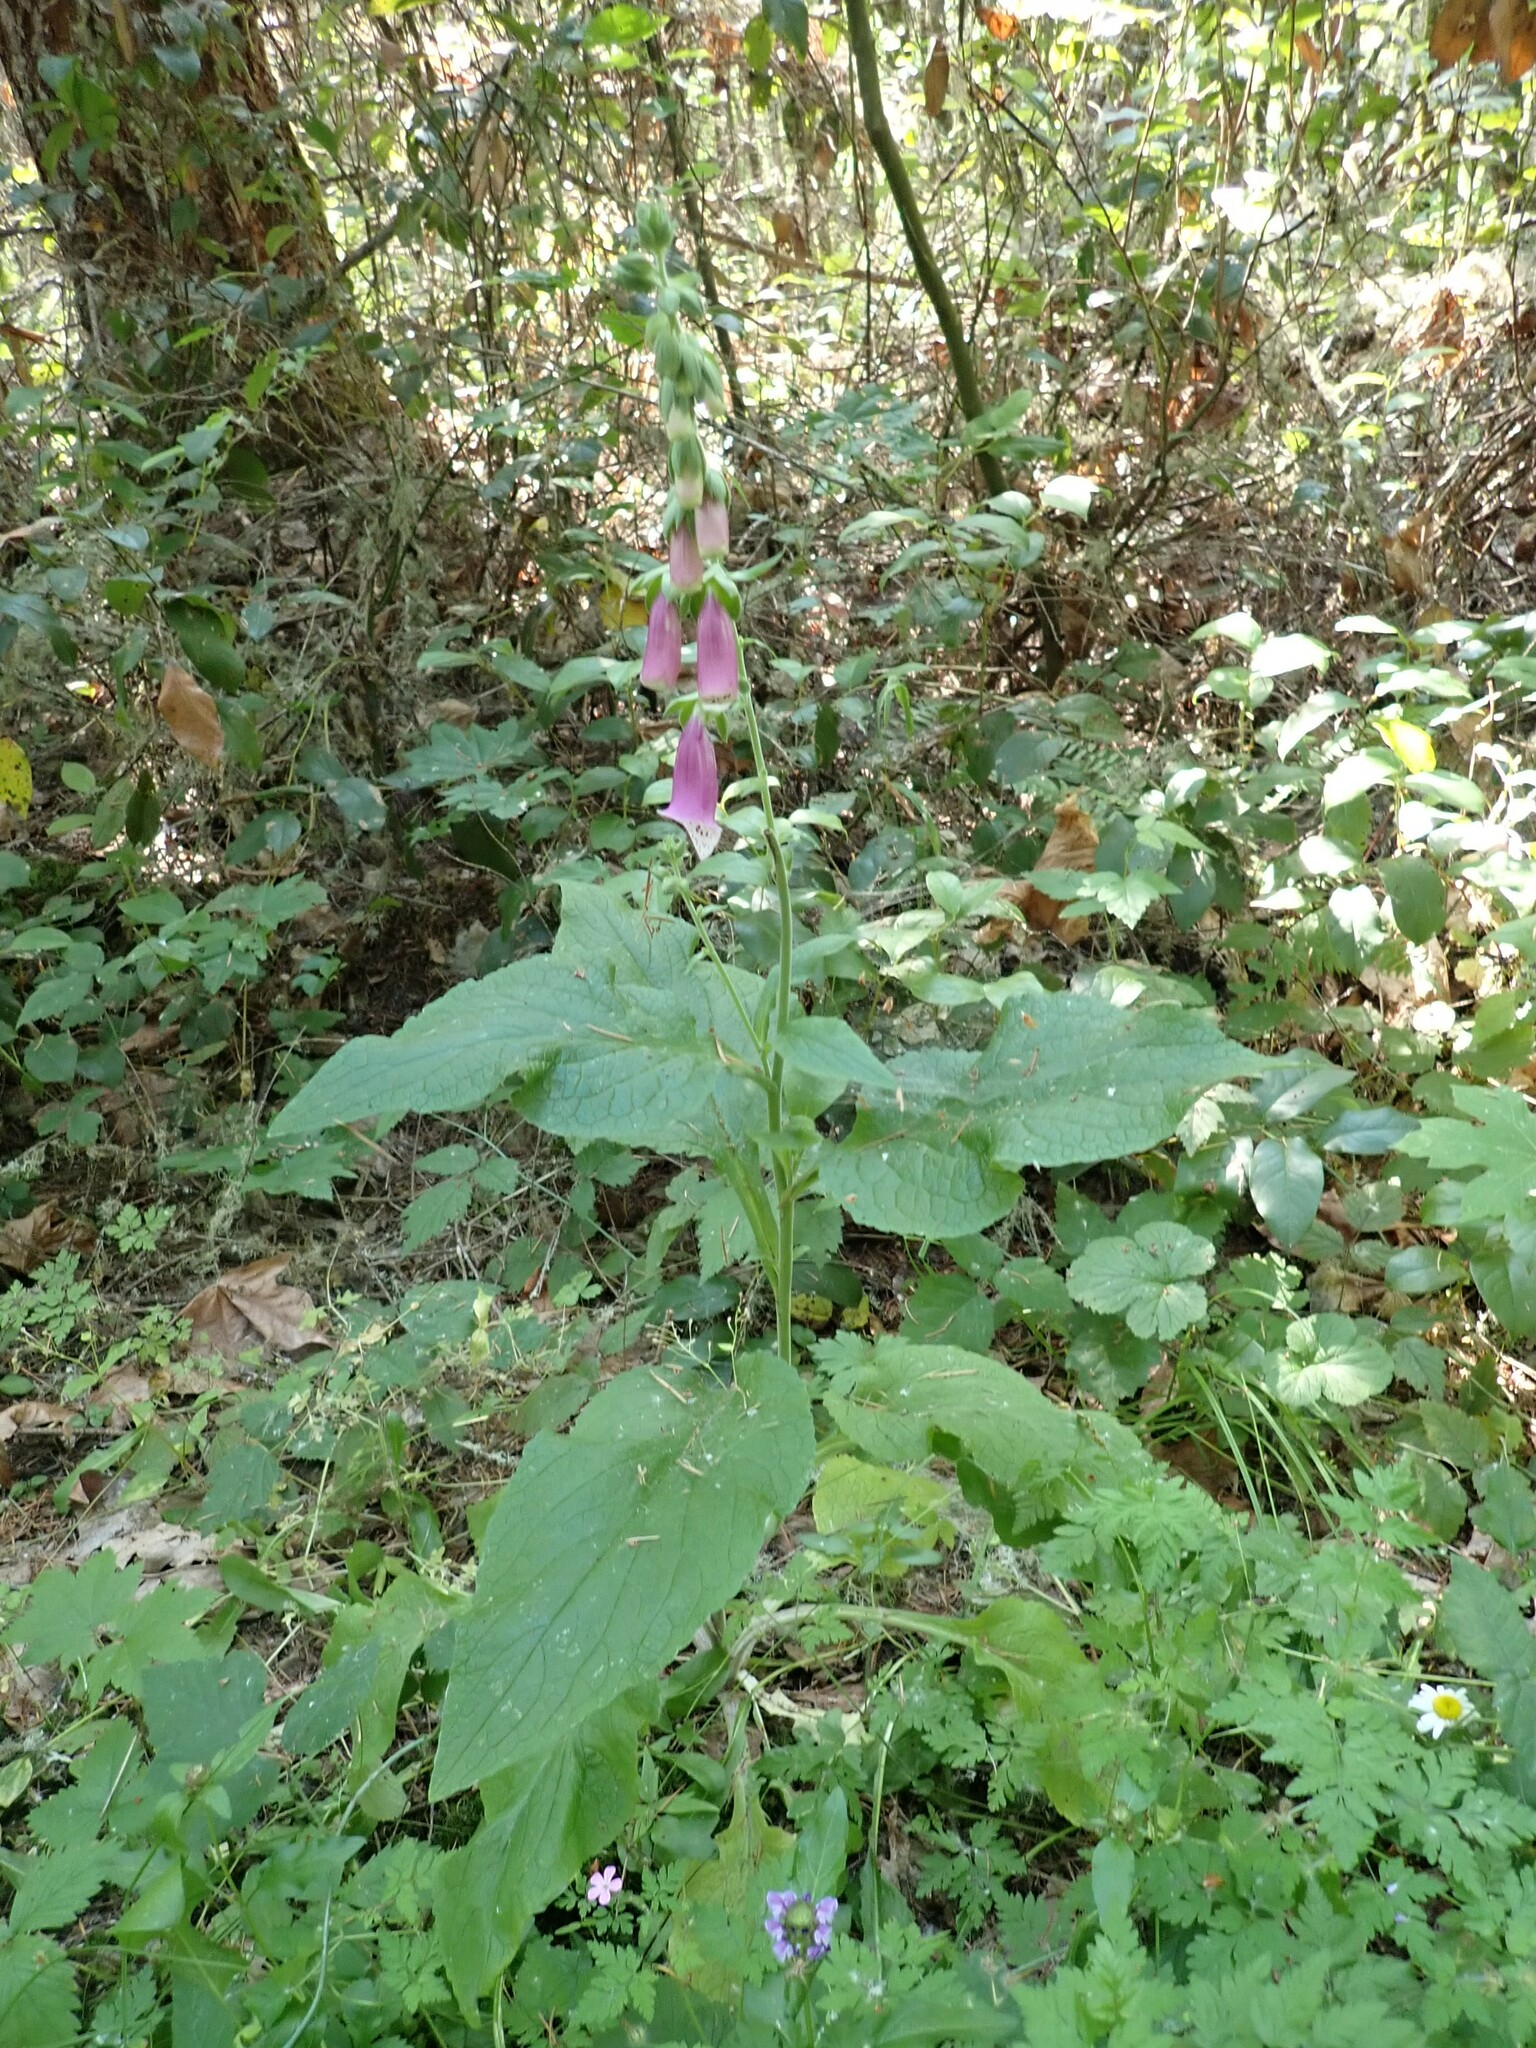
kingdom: Plantae
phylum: Tracheophyta
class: Magnoliopsida
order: Lamiales
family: Plantaginaceae
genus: Digitalis
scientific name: Digitalis purpurea
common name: Foxglove
